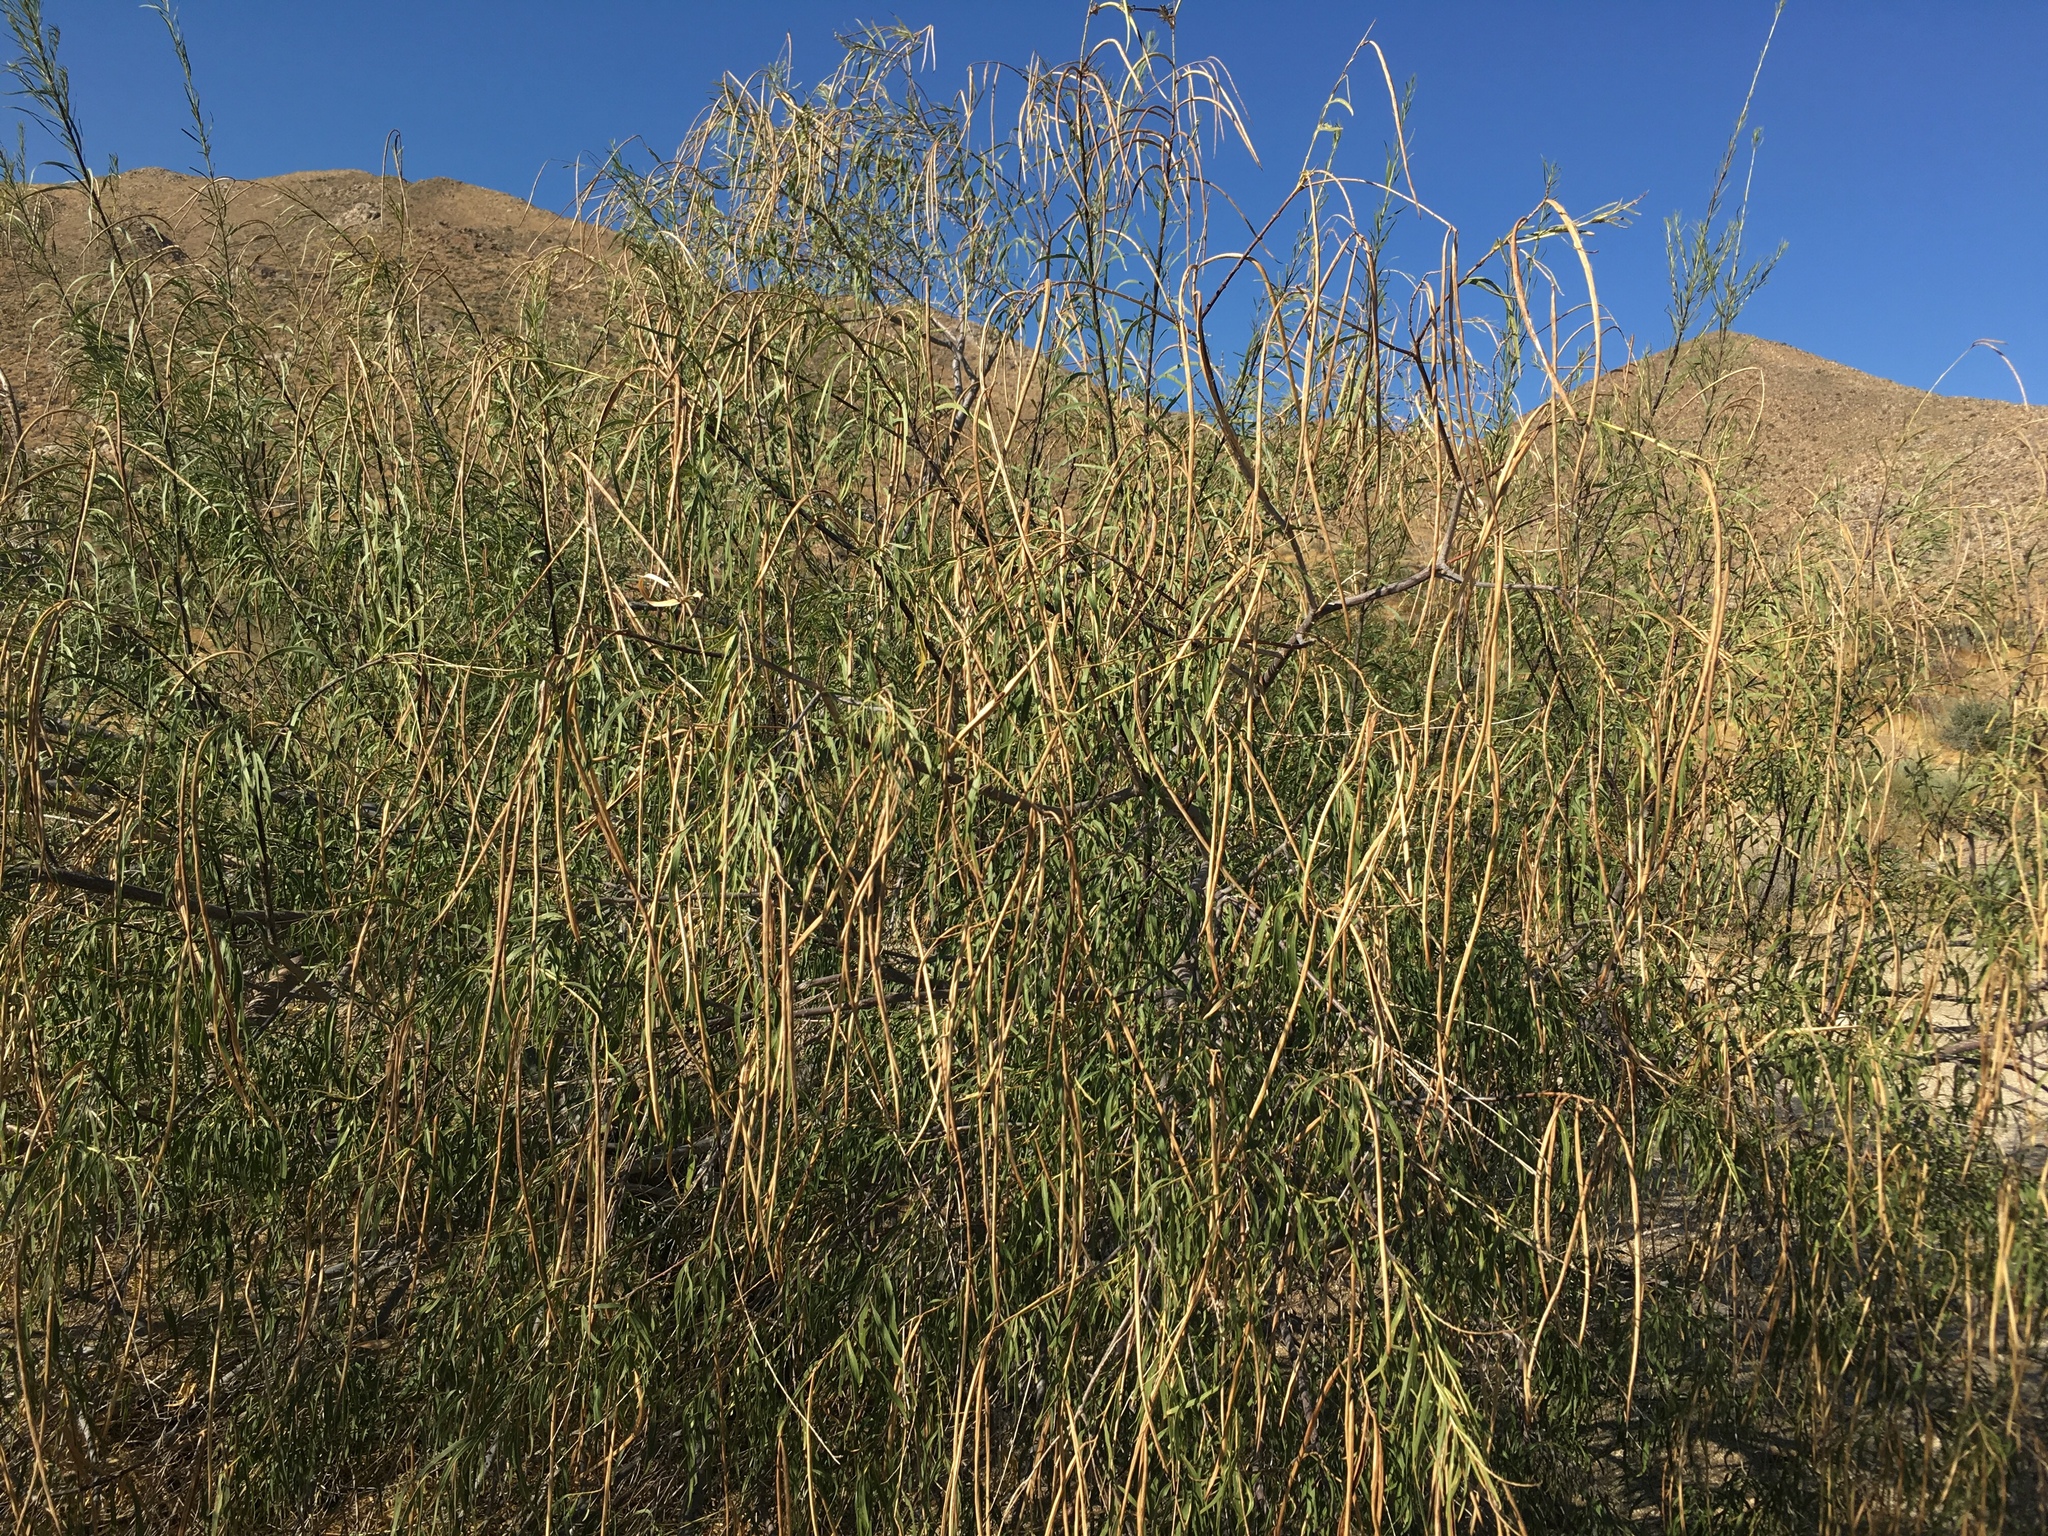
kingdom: Plantae
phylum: Tracheophyta
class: Magnoliopsida
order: Lamiales
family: Bignoniaceae
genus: Chilopsis
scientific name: Chilopsis linearis
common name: Desert-willow
